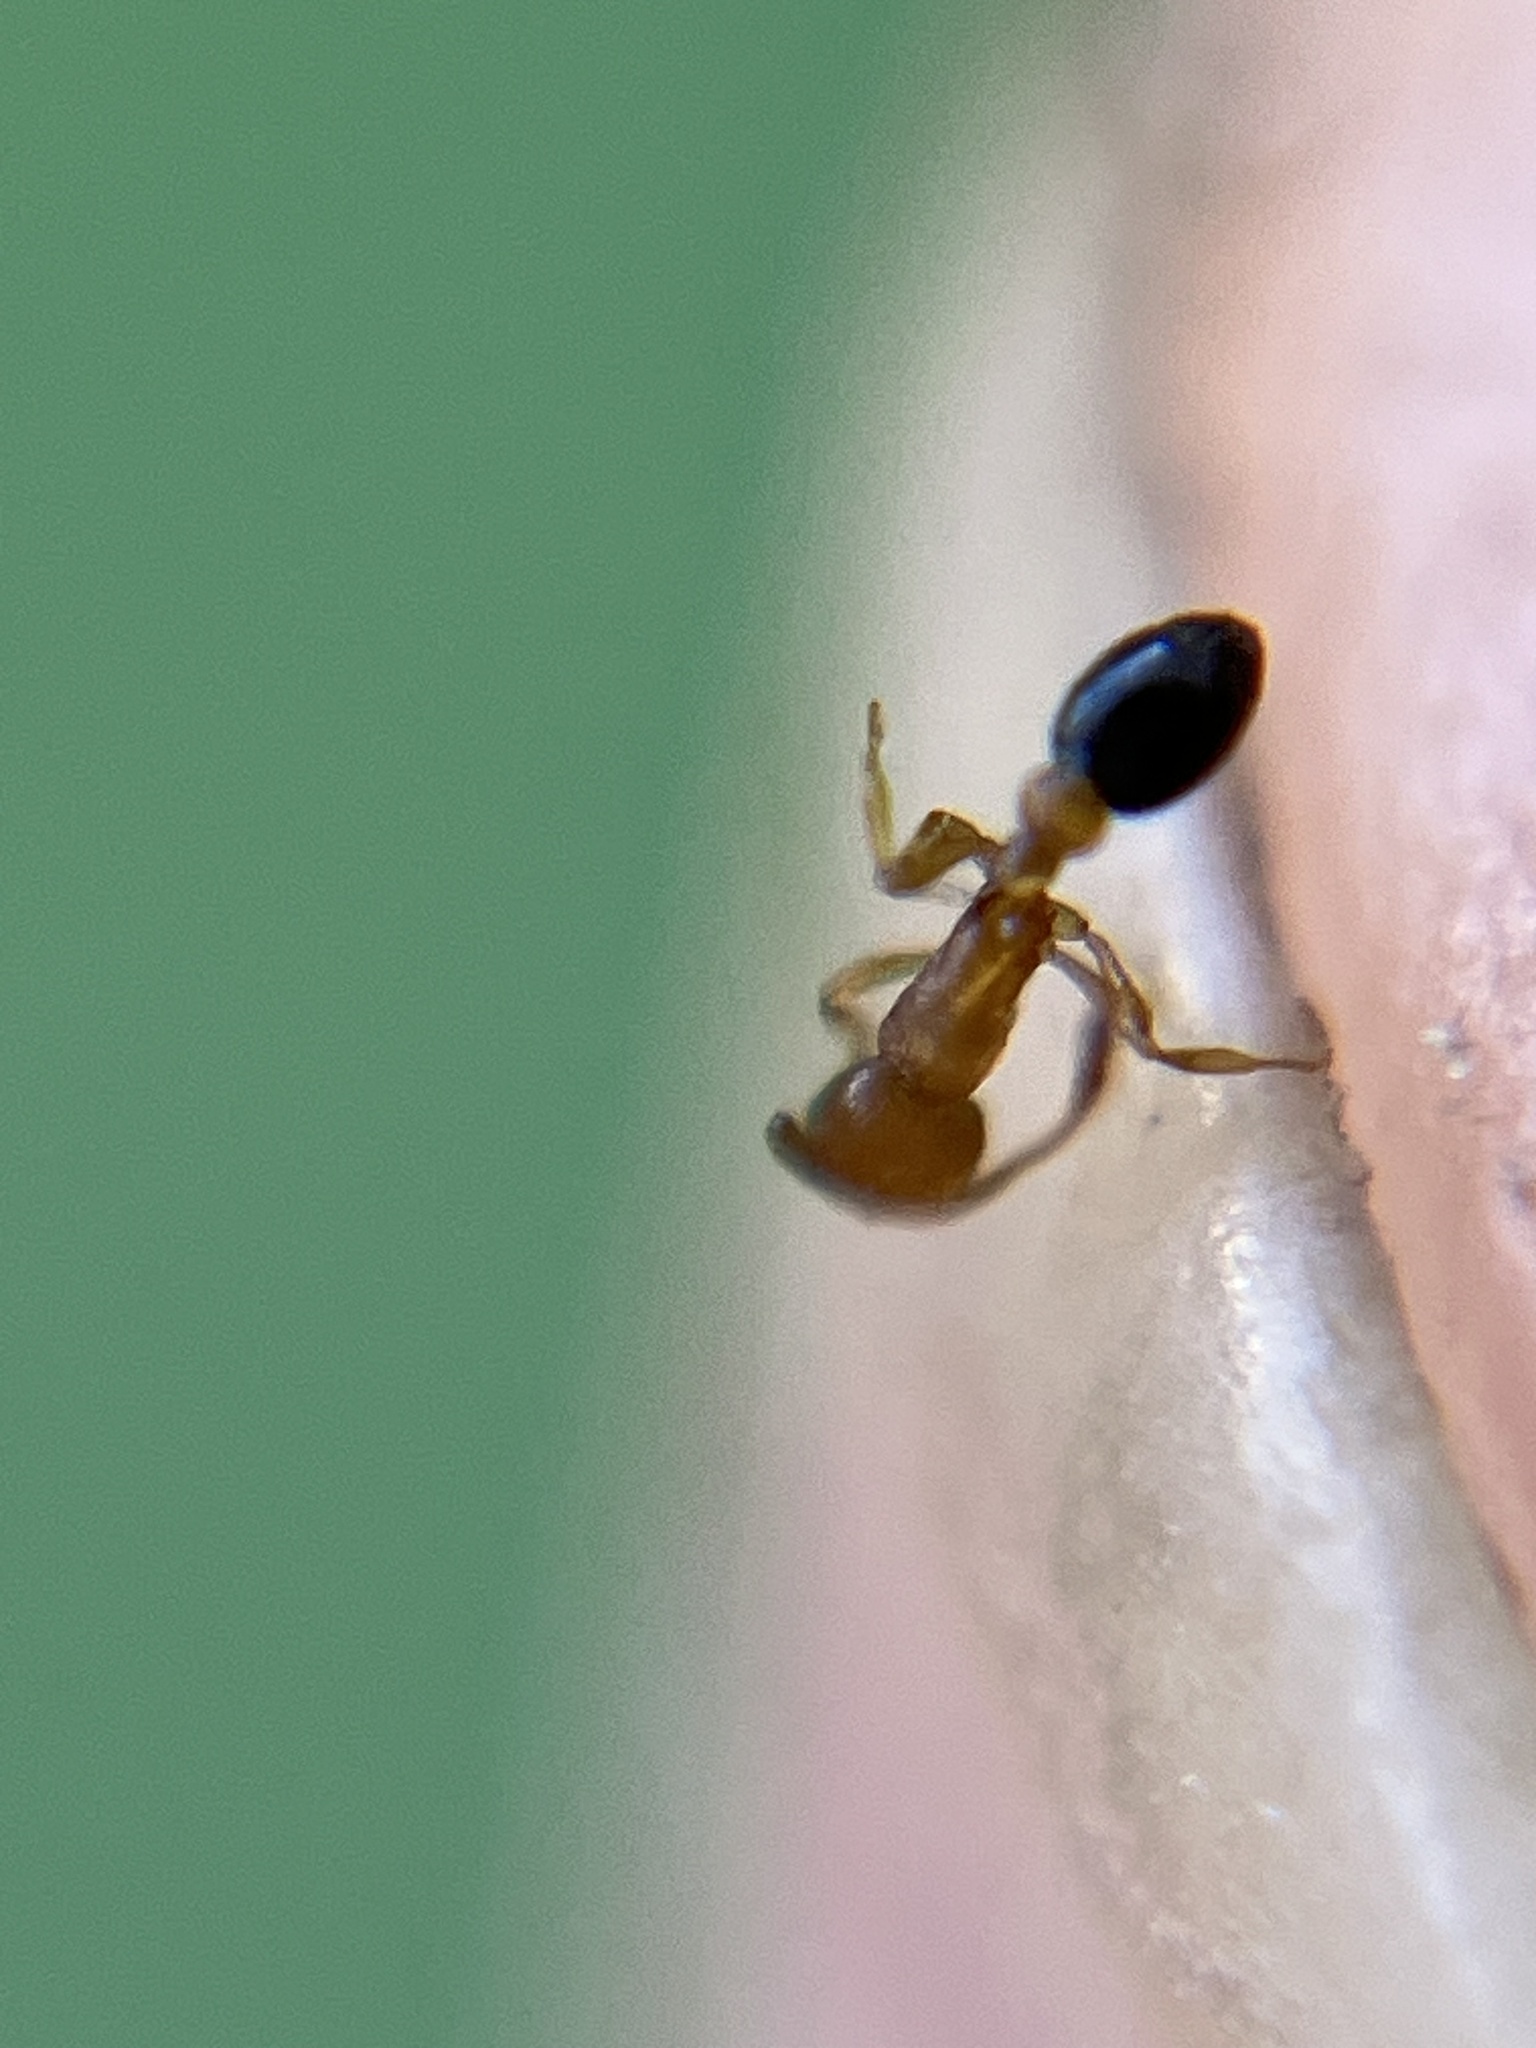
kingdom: Animalia
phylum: Arthropoda
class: Insecta
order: Hymenoptera
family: Formicidae
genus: Cardiocondyla
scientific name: Cardiocondyla minutior
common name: Ant
